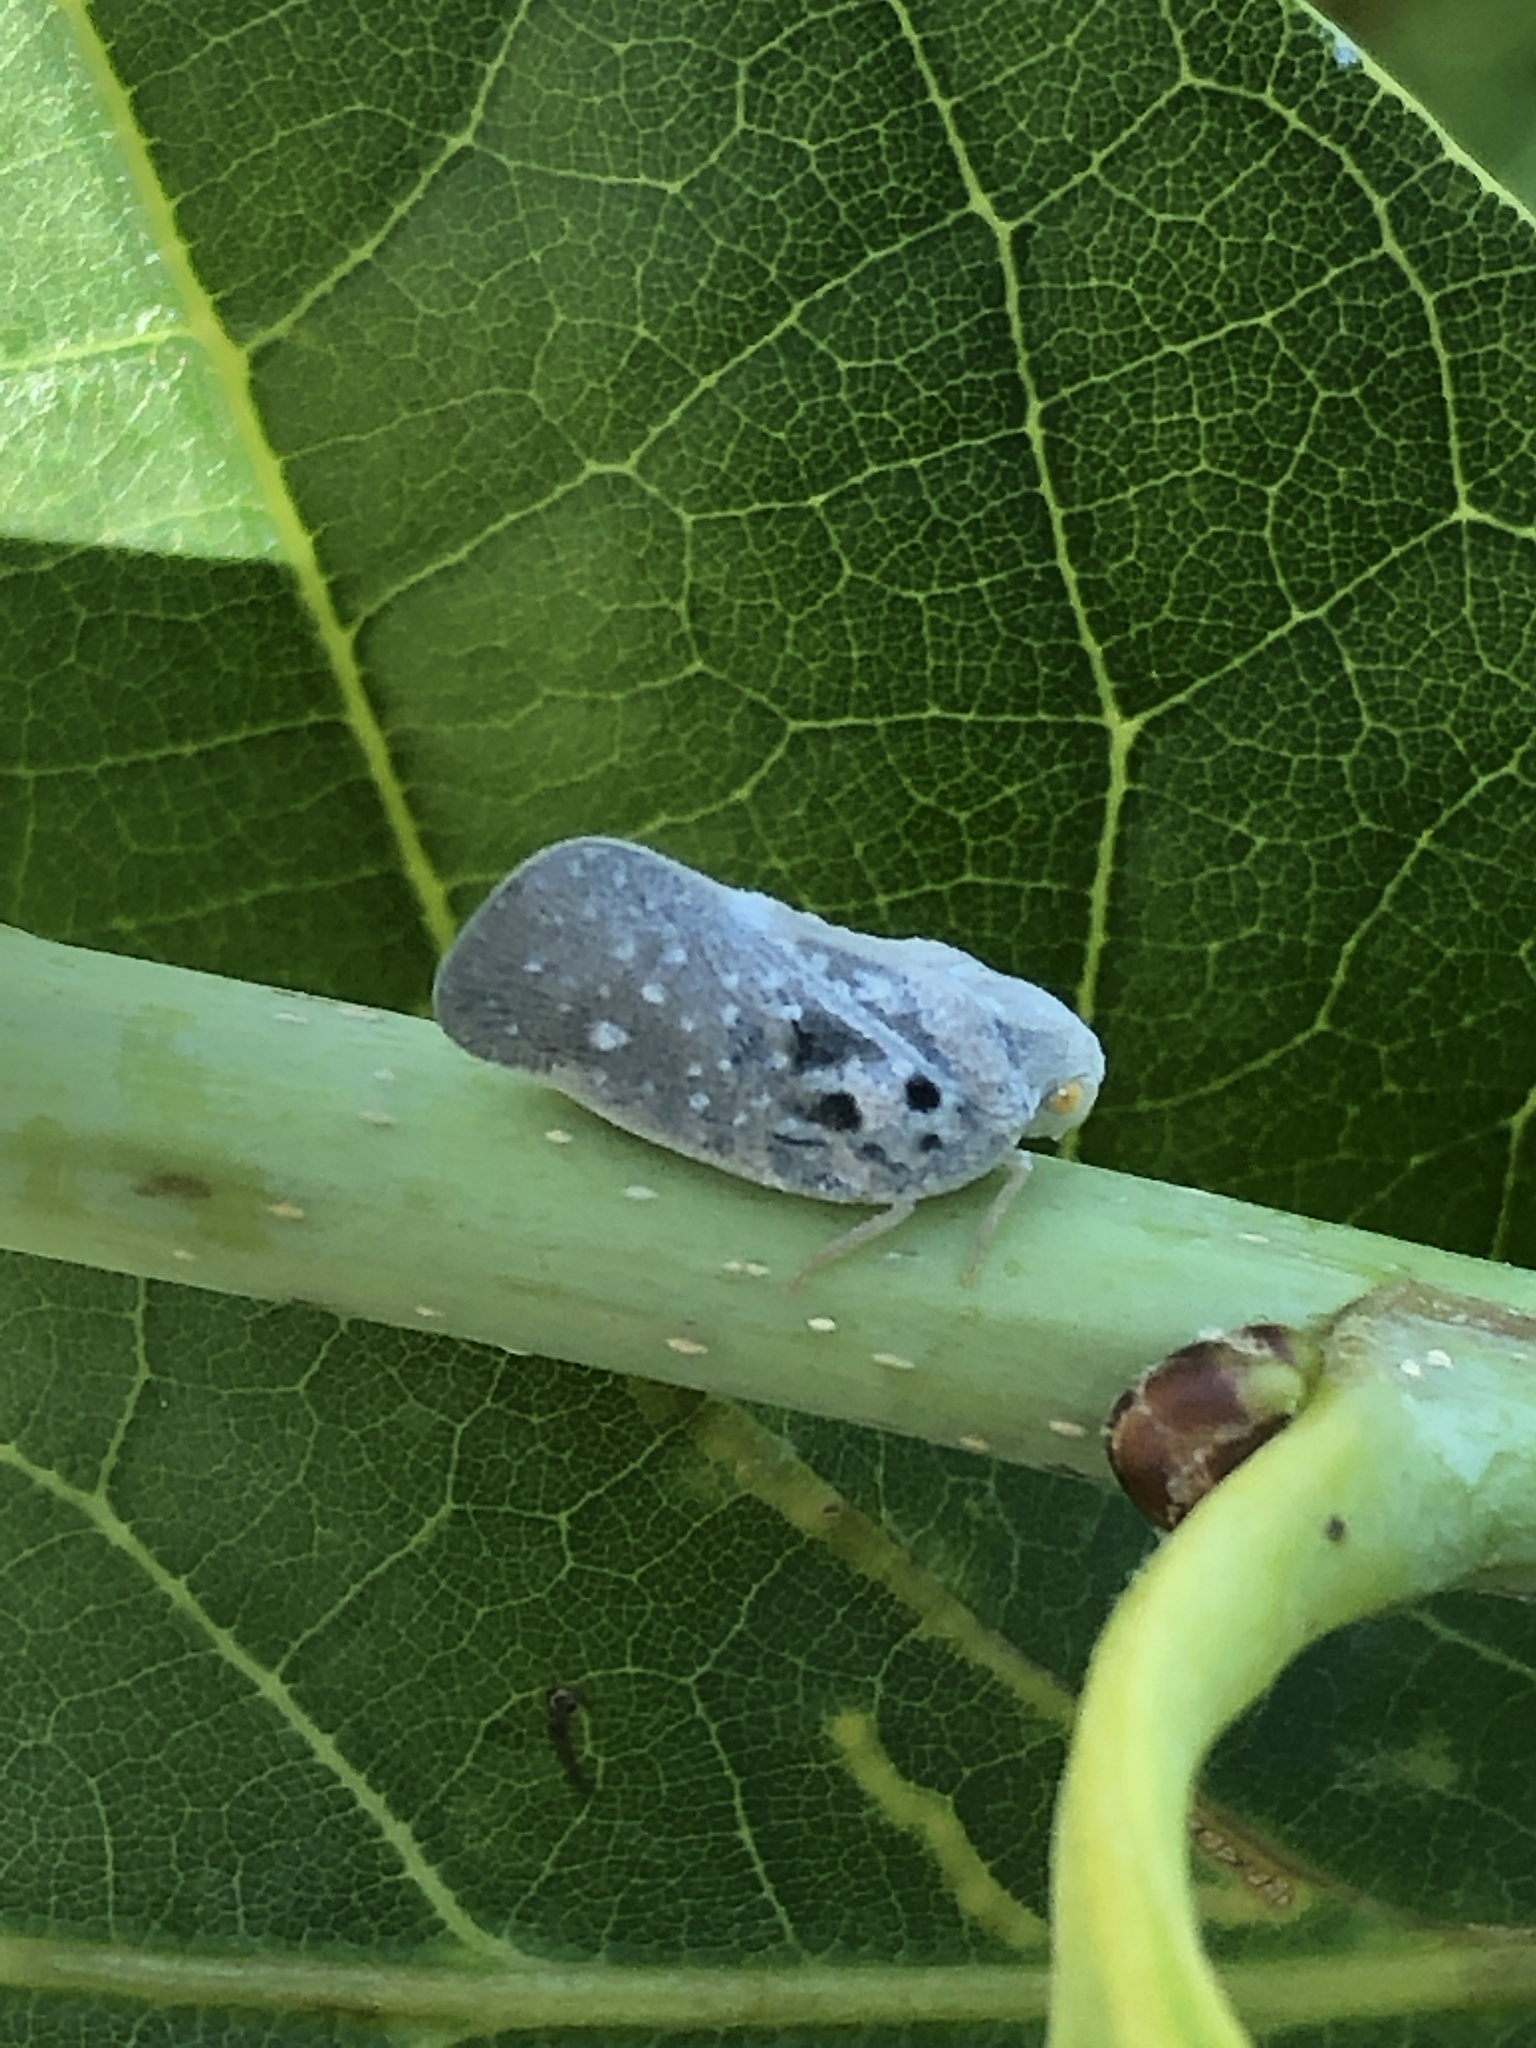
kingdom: Animalia
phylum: Arthropoda
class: Insecta
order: Hemiptera
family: Flatidae
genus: Metcalfa
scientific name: Metcalfa pruinosa
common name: Citrus flatid planthopper
